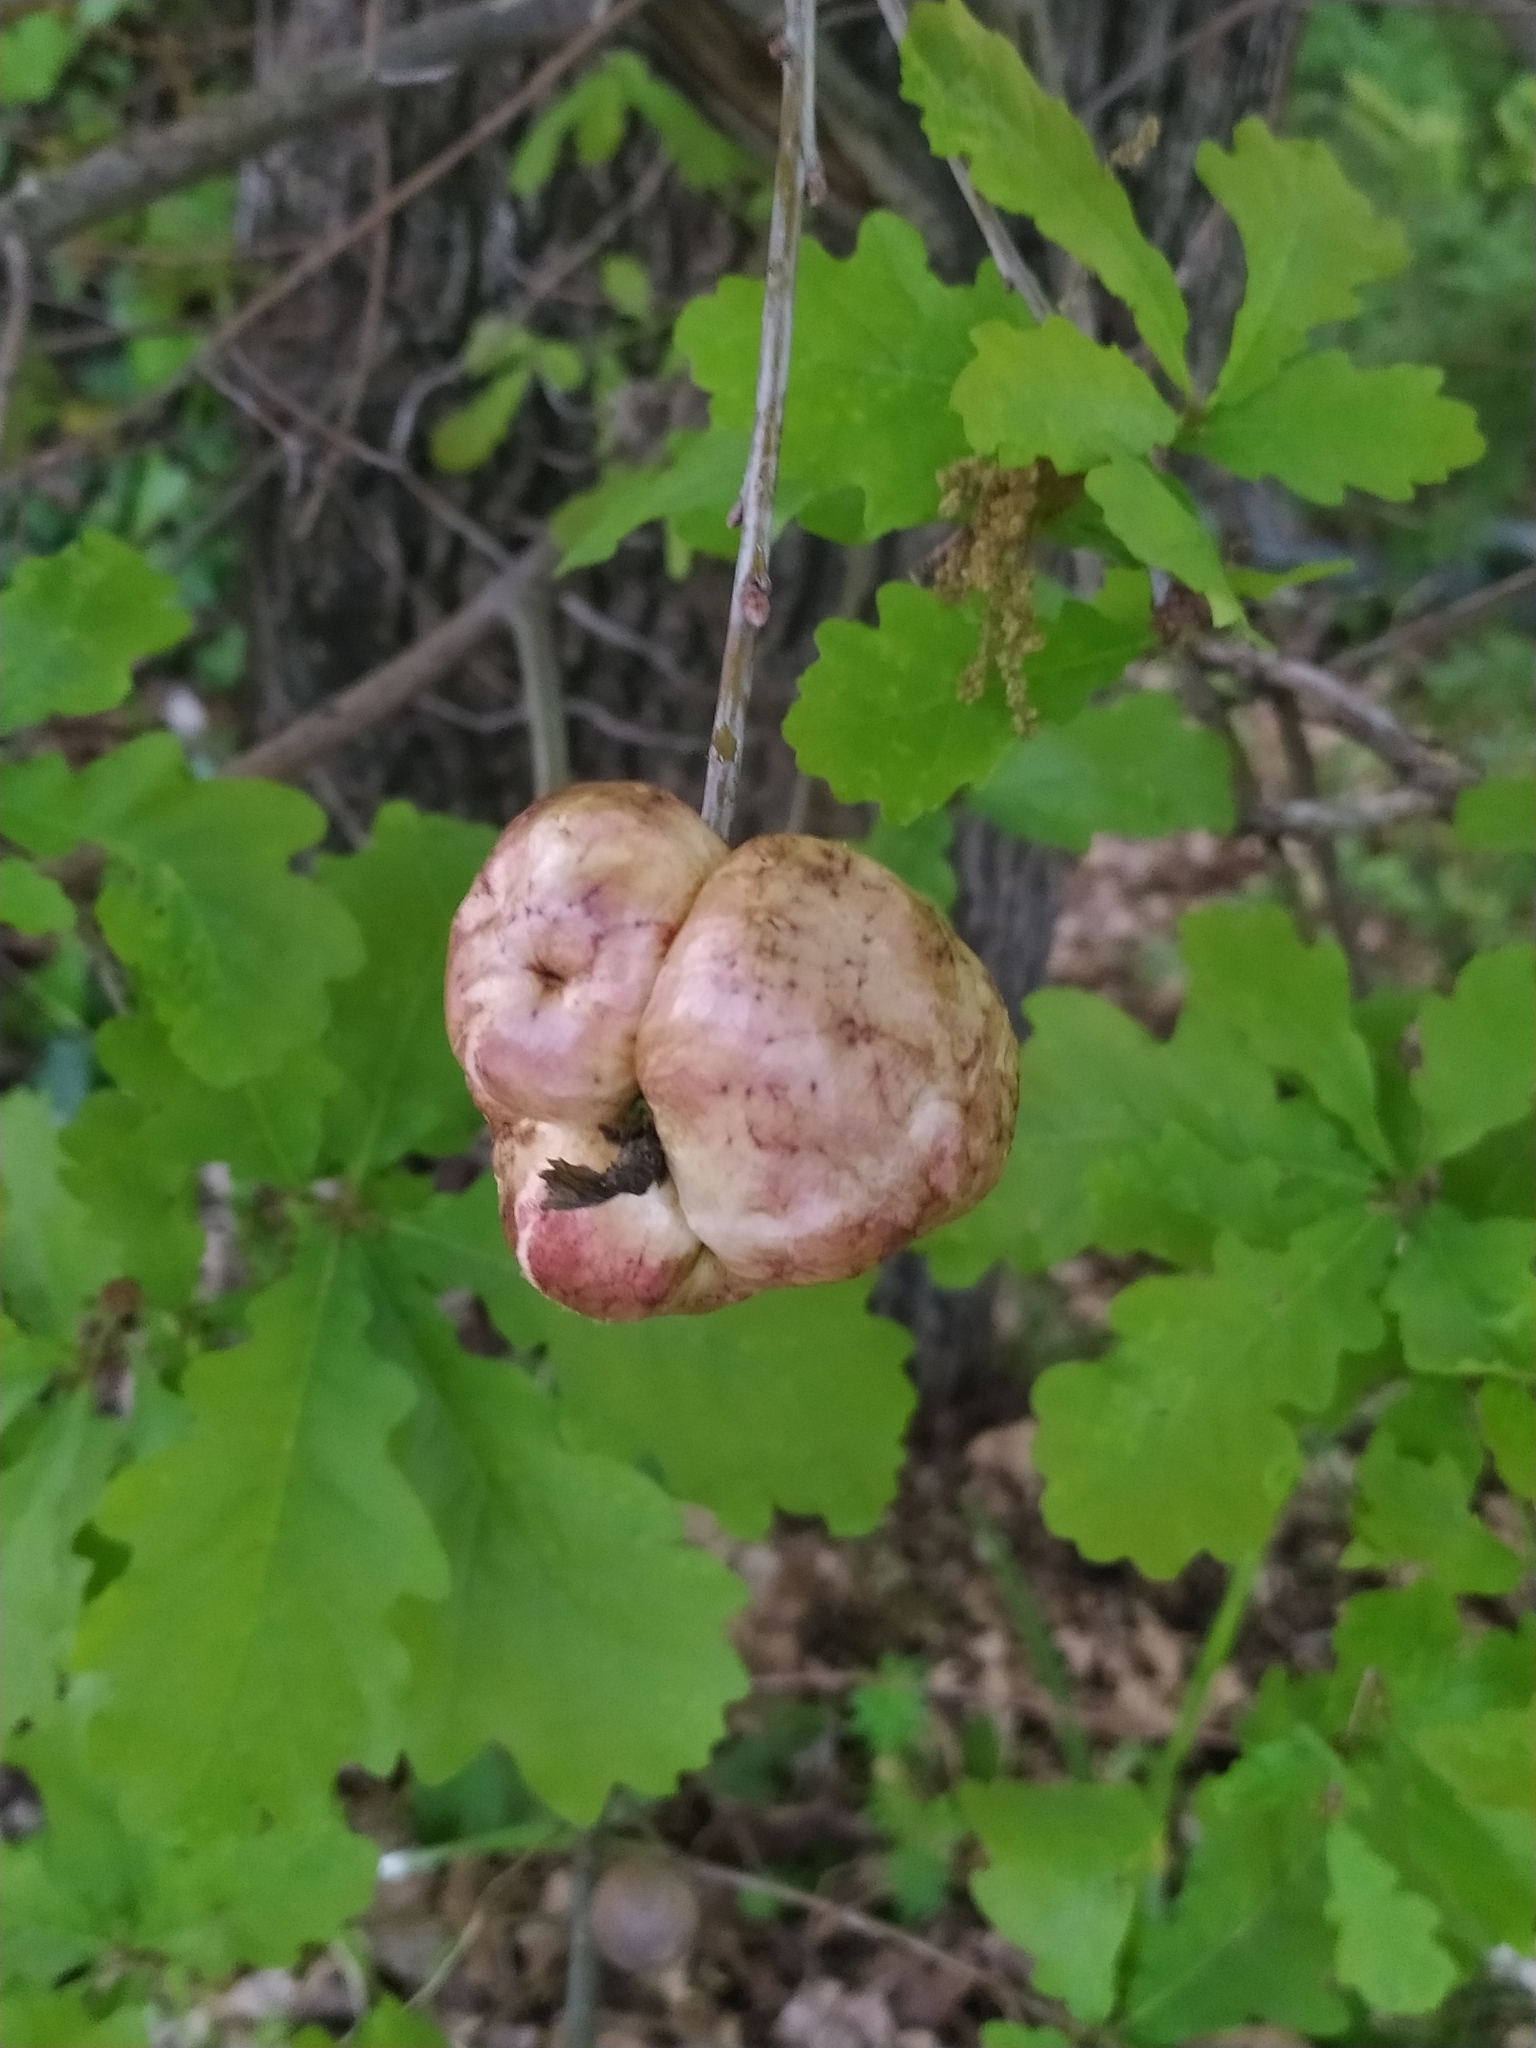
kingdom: Animalia
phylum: Arthropoda
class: Insecta
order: Hymenoptera
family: Cynipidae
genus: Biorhiza
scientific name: Biorhiza pallida
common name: Oak apple
